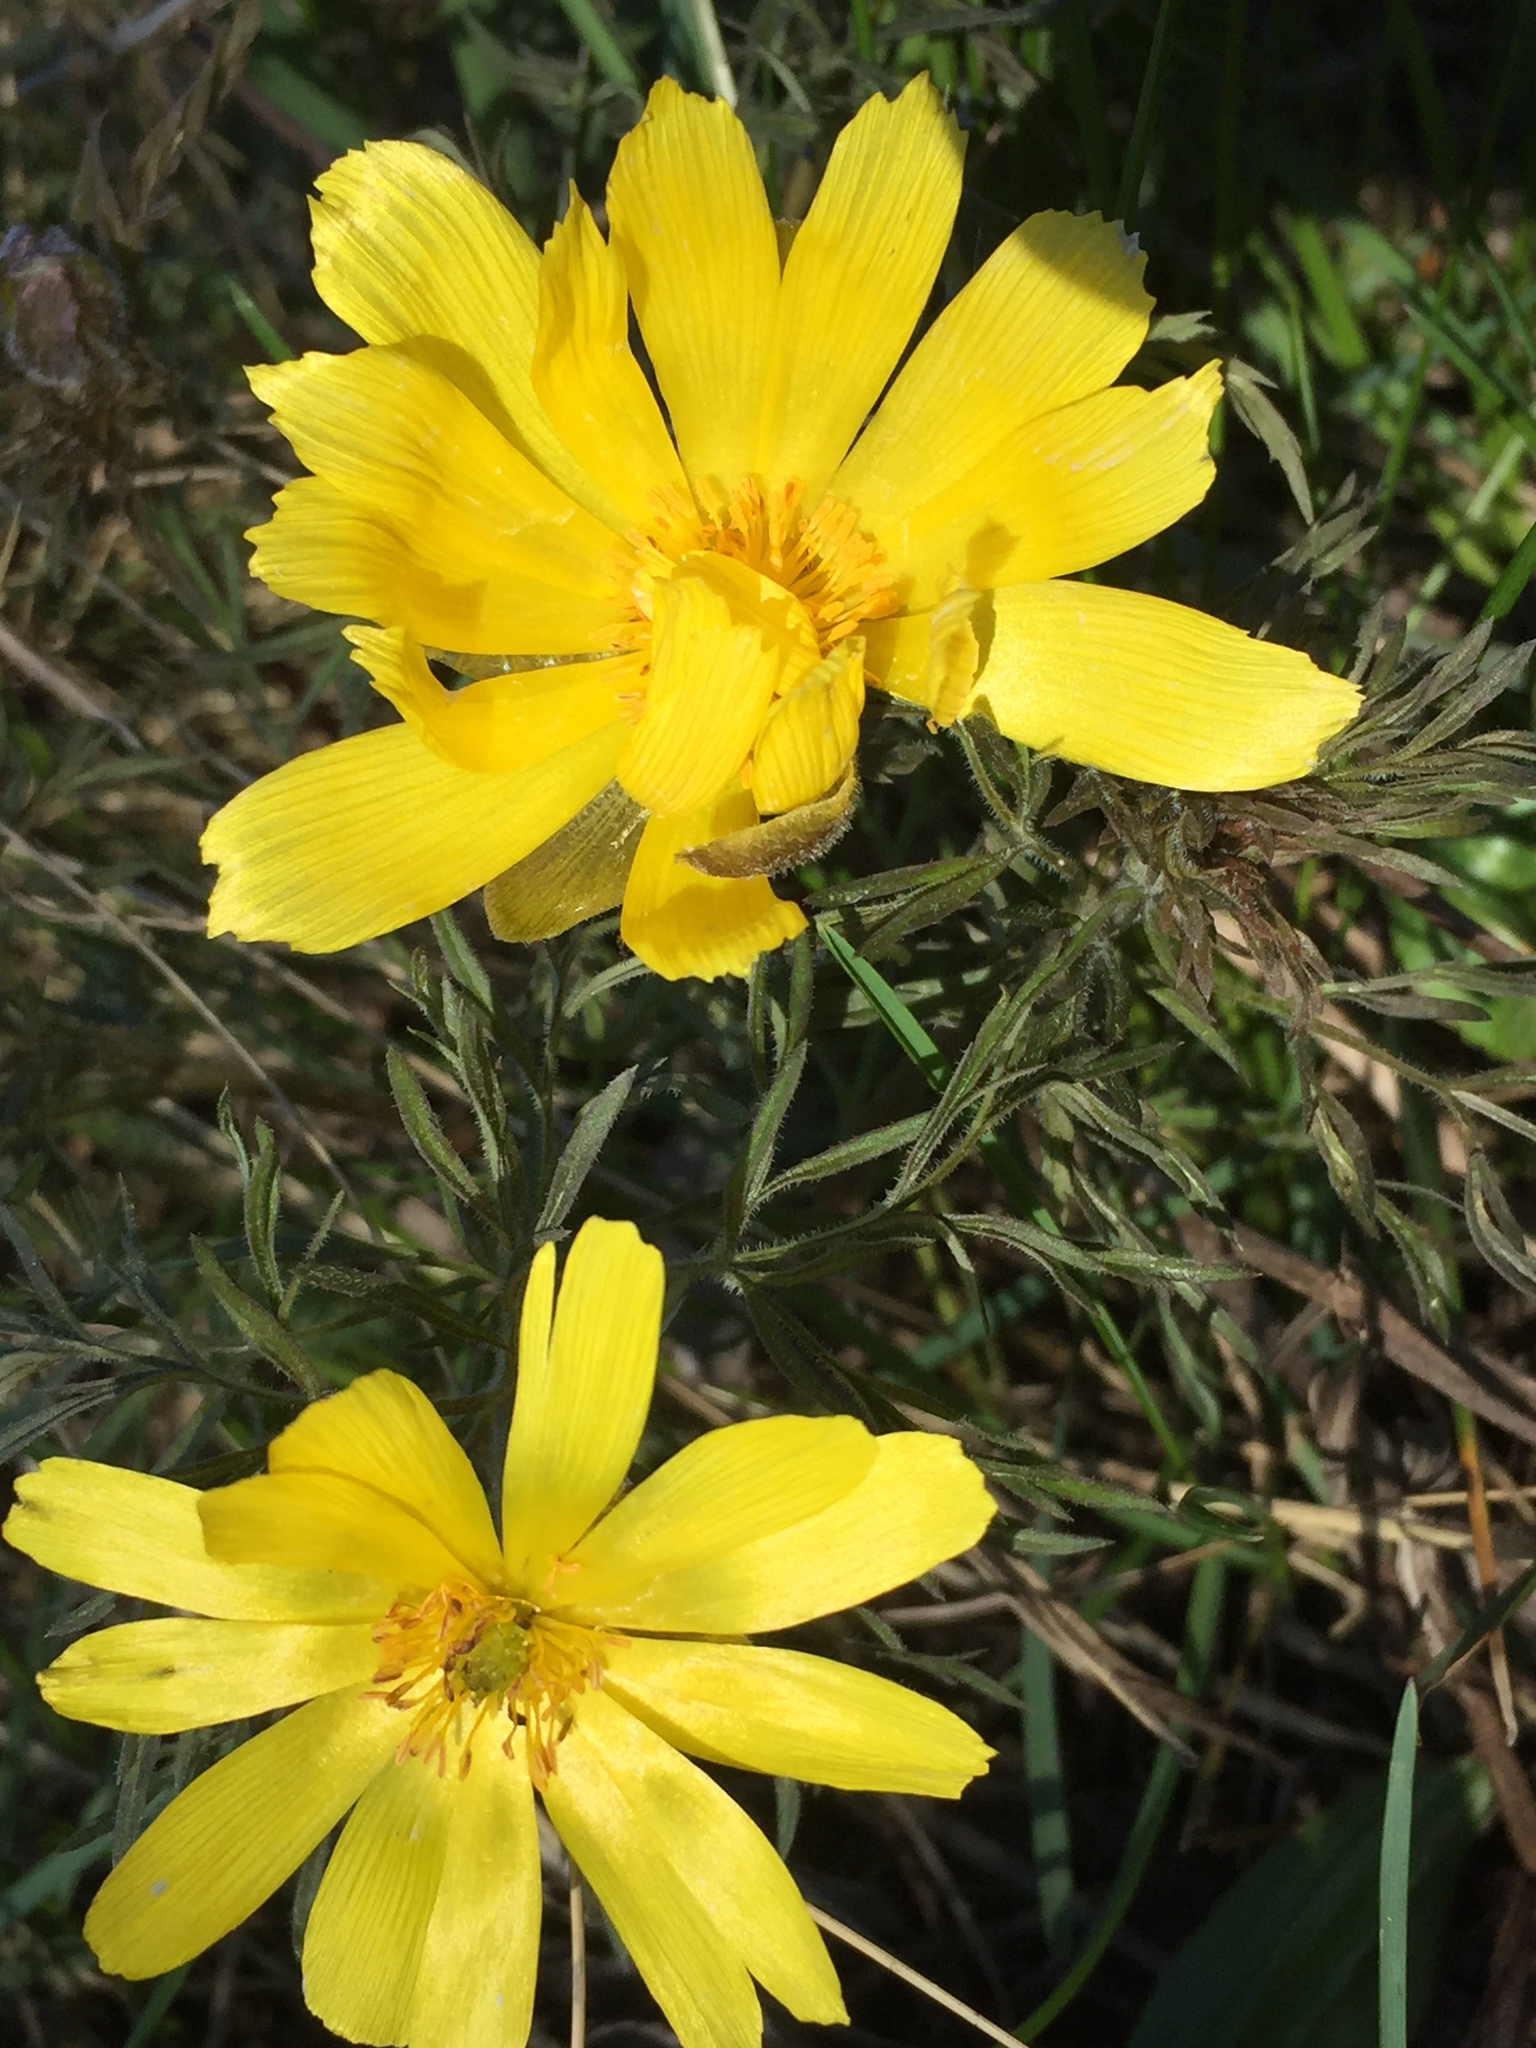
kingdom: Plantae
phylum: Tracheophyta
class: Magnoliopsida
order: Ranunculales
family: Ranunculaceae
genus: Adonis
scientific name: Adonis volgensis
